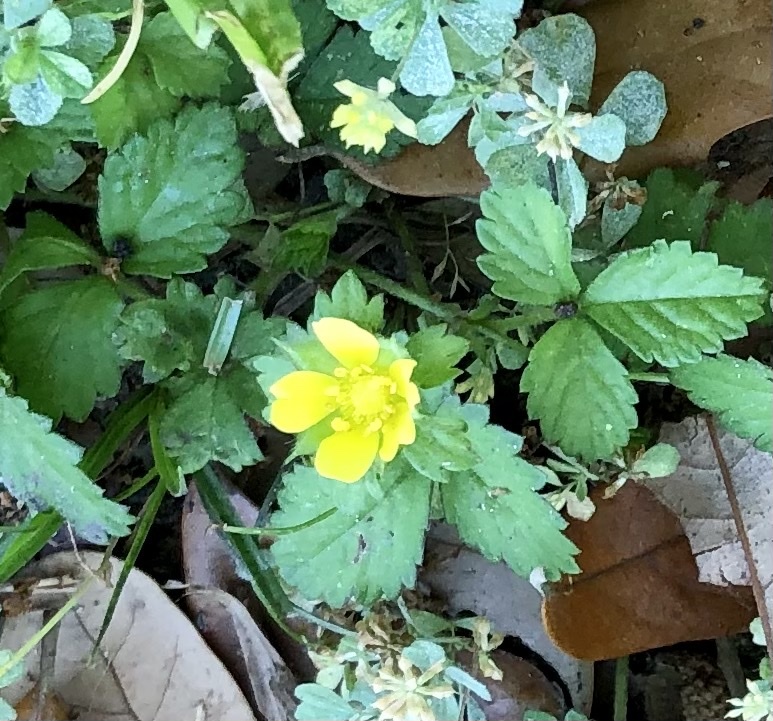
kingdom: Plantae
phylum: Tracheophyta
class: Magnoliopsida
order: Rosales
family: Rosaceae
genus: Potentilla
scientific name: Potentilla indica
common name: Yellow-flowered strawberry
